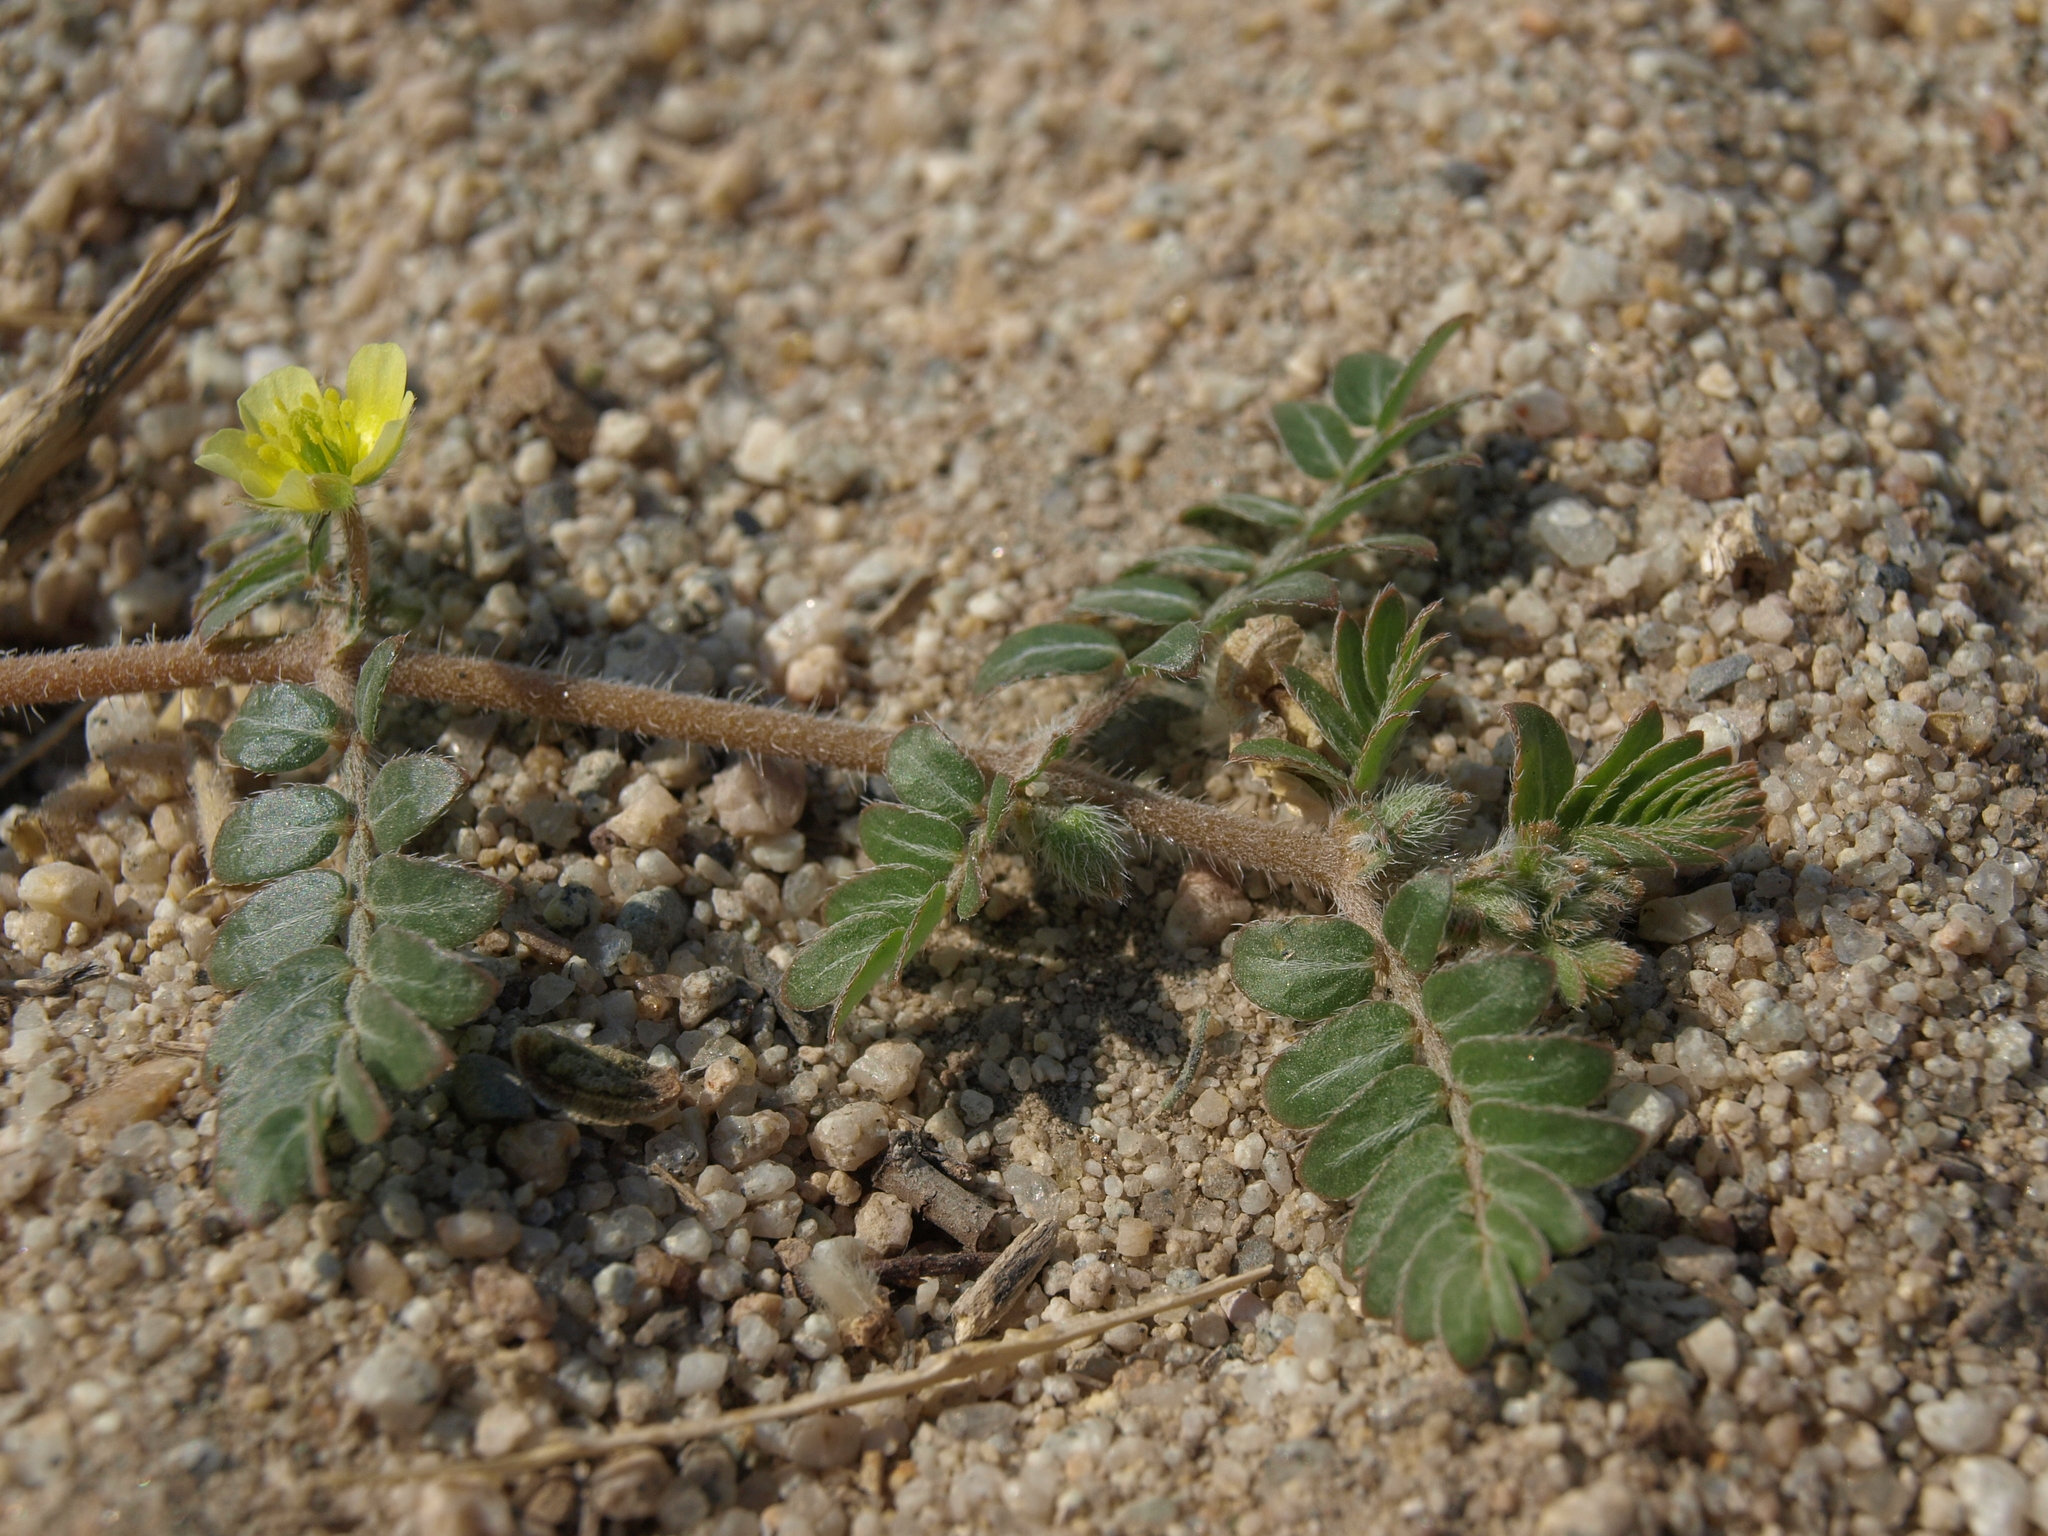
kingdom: Plantae
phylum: Tracheophyta
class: Magnoliopsida
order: Zygophyllales
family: Zygophyllaceae
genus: Tribulus
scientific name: Tribulus terrestris
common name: Puncturevine
